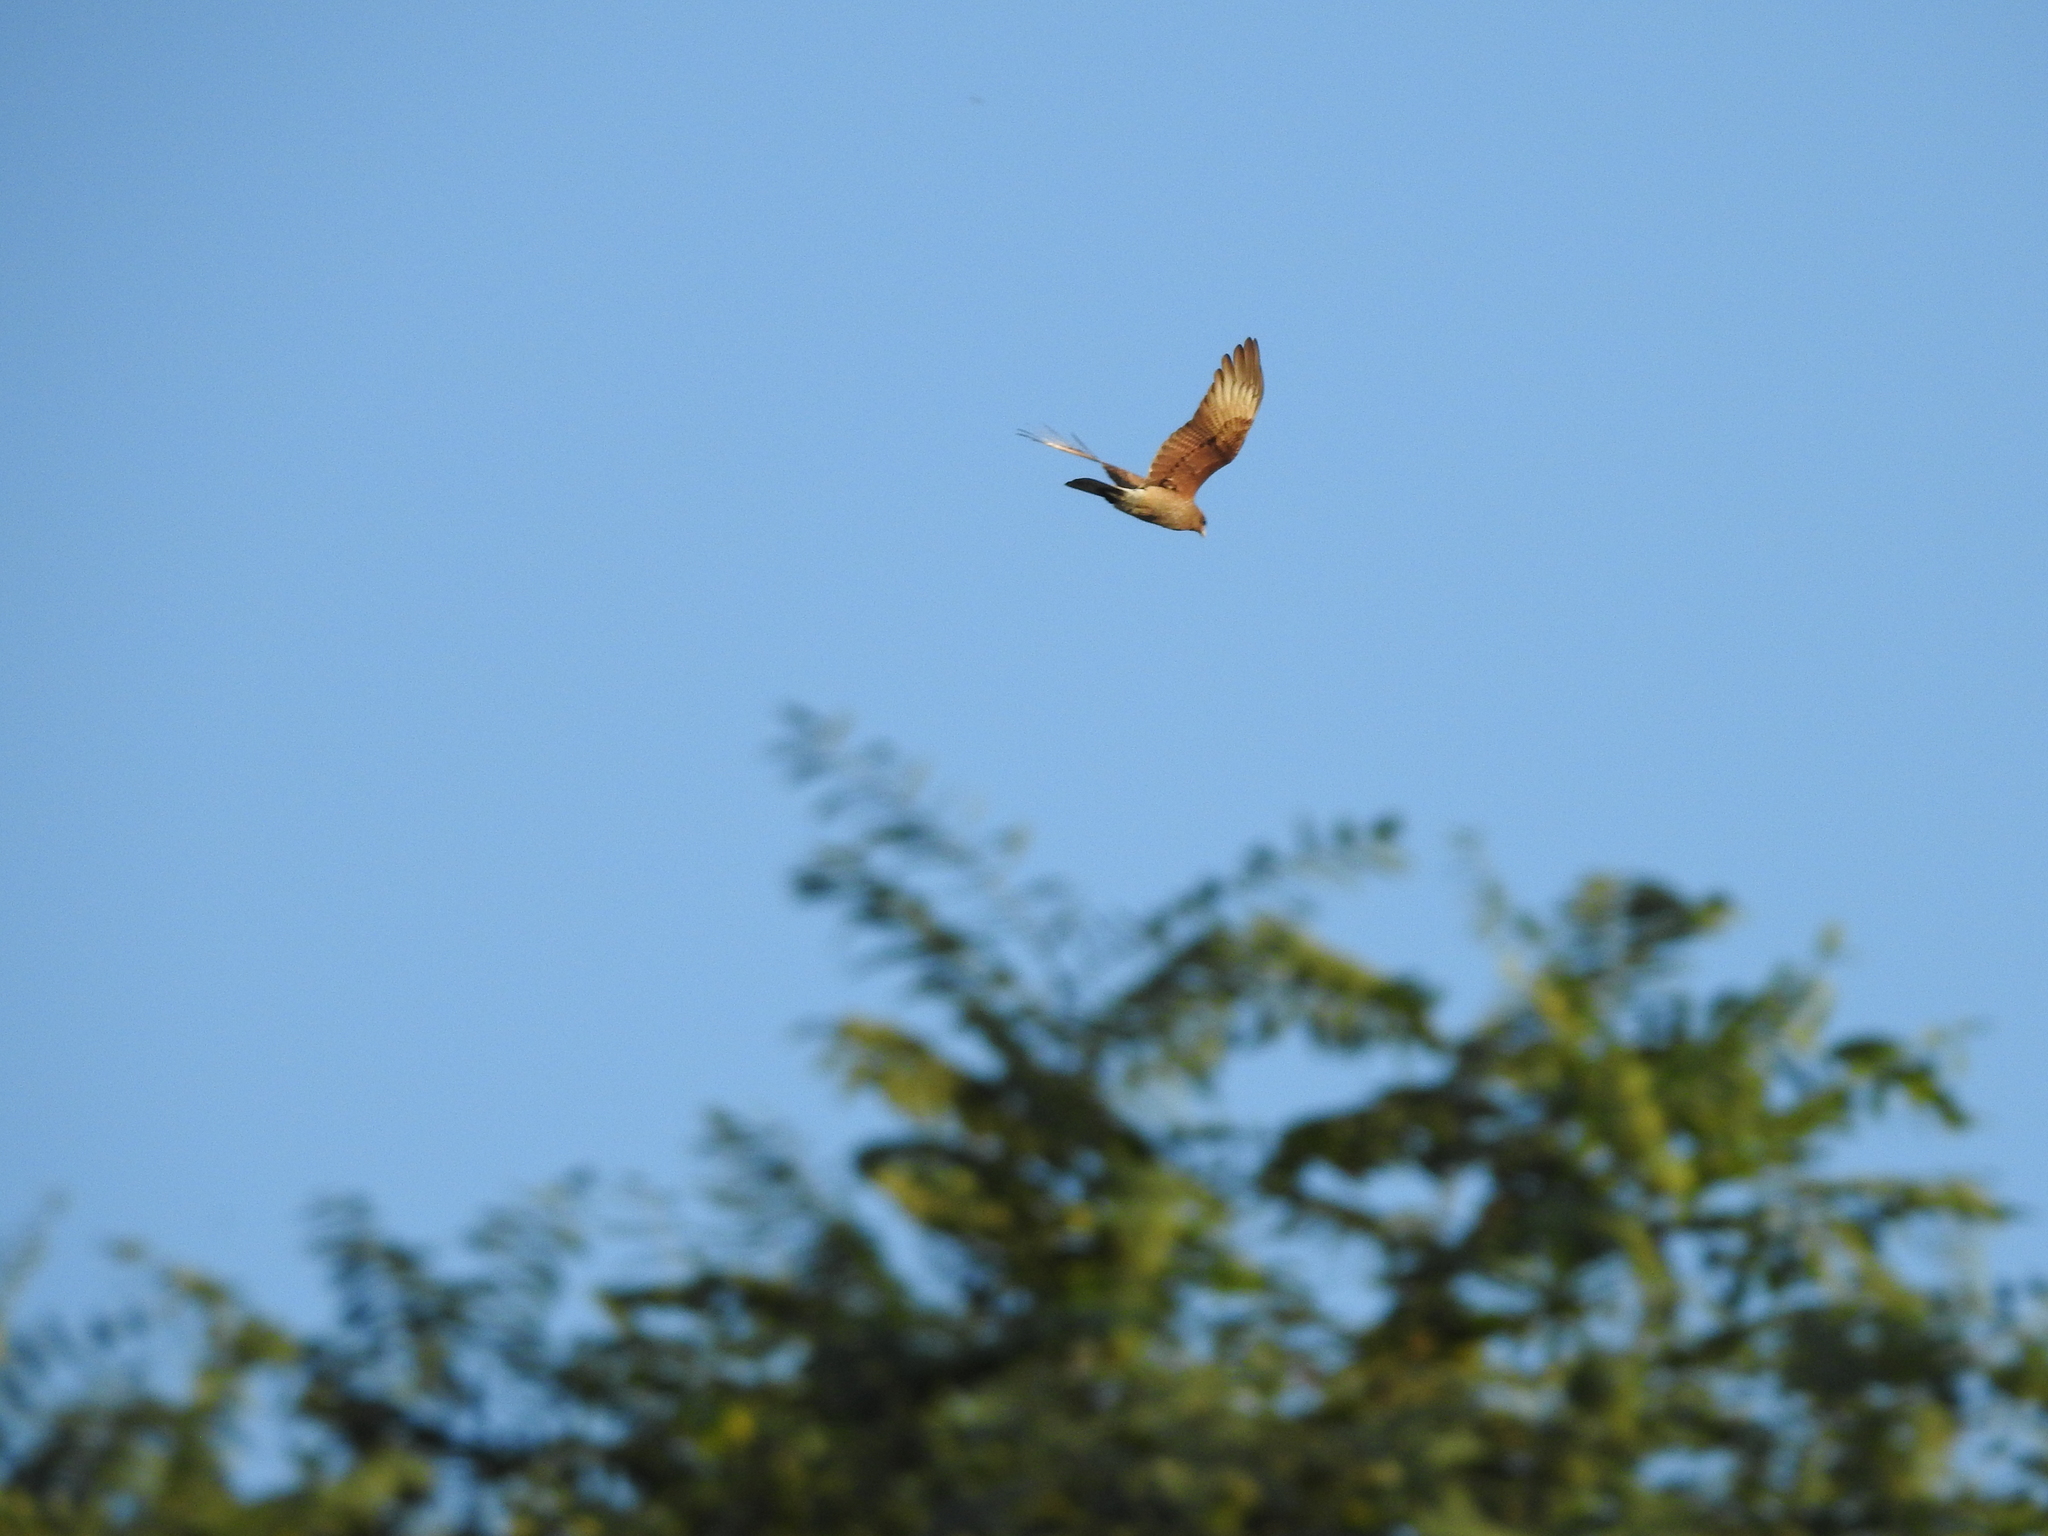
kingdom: Animalia
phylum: Chordata
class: Aves
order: Falconiformes
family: Falconidae
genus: Daptrius
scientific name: Daptrius
